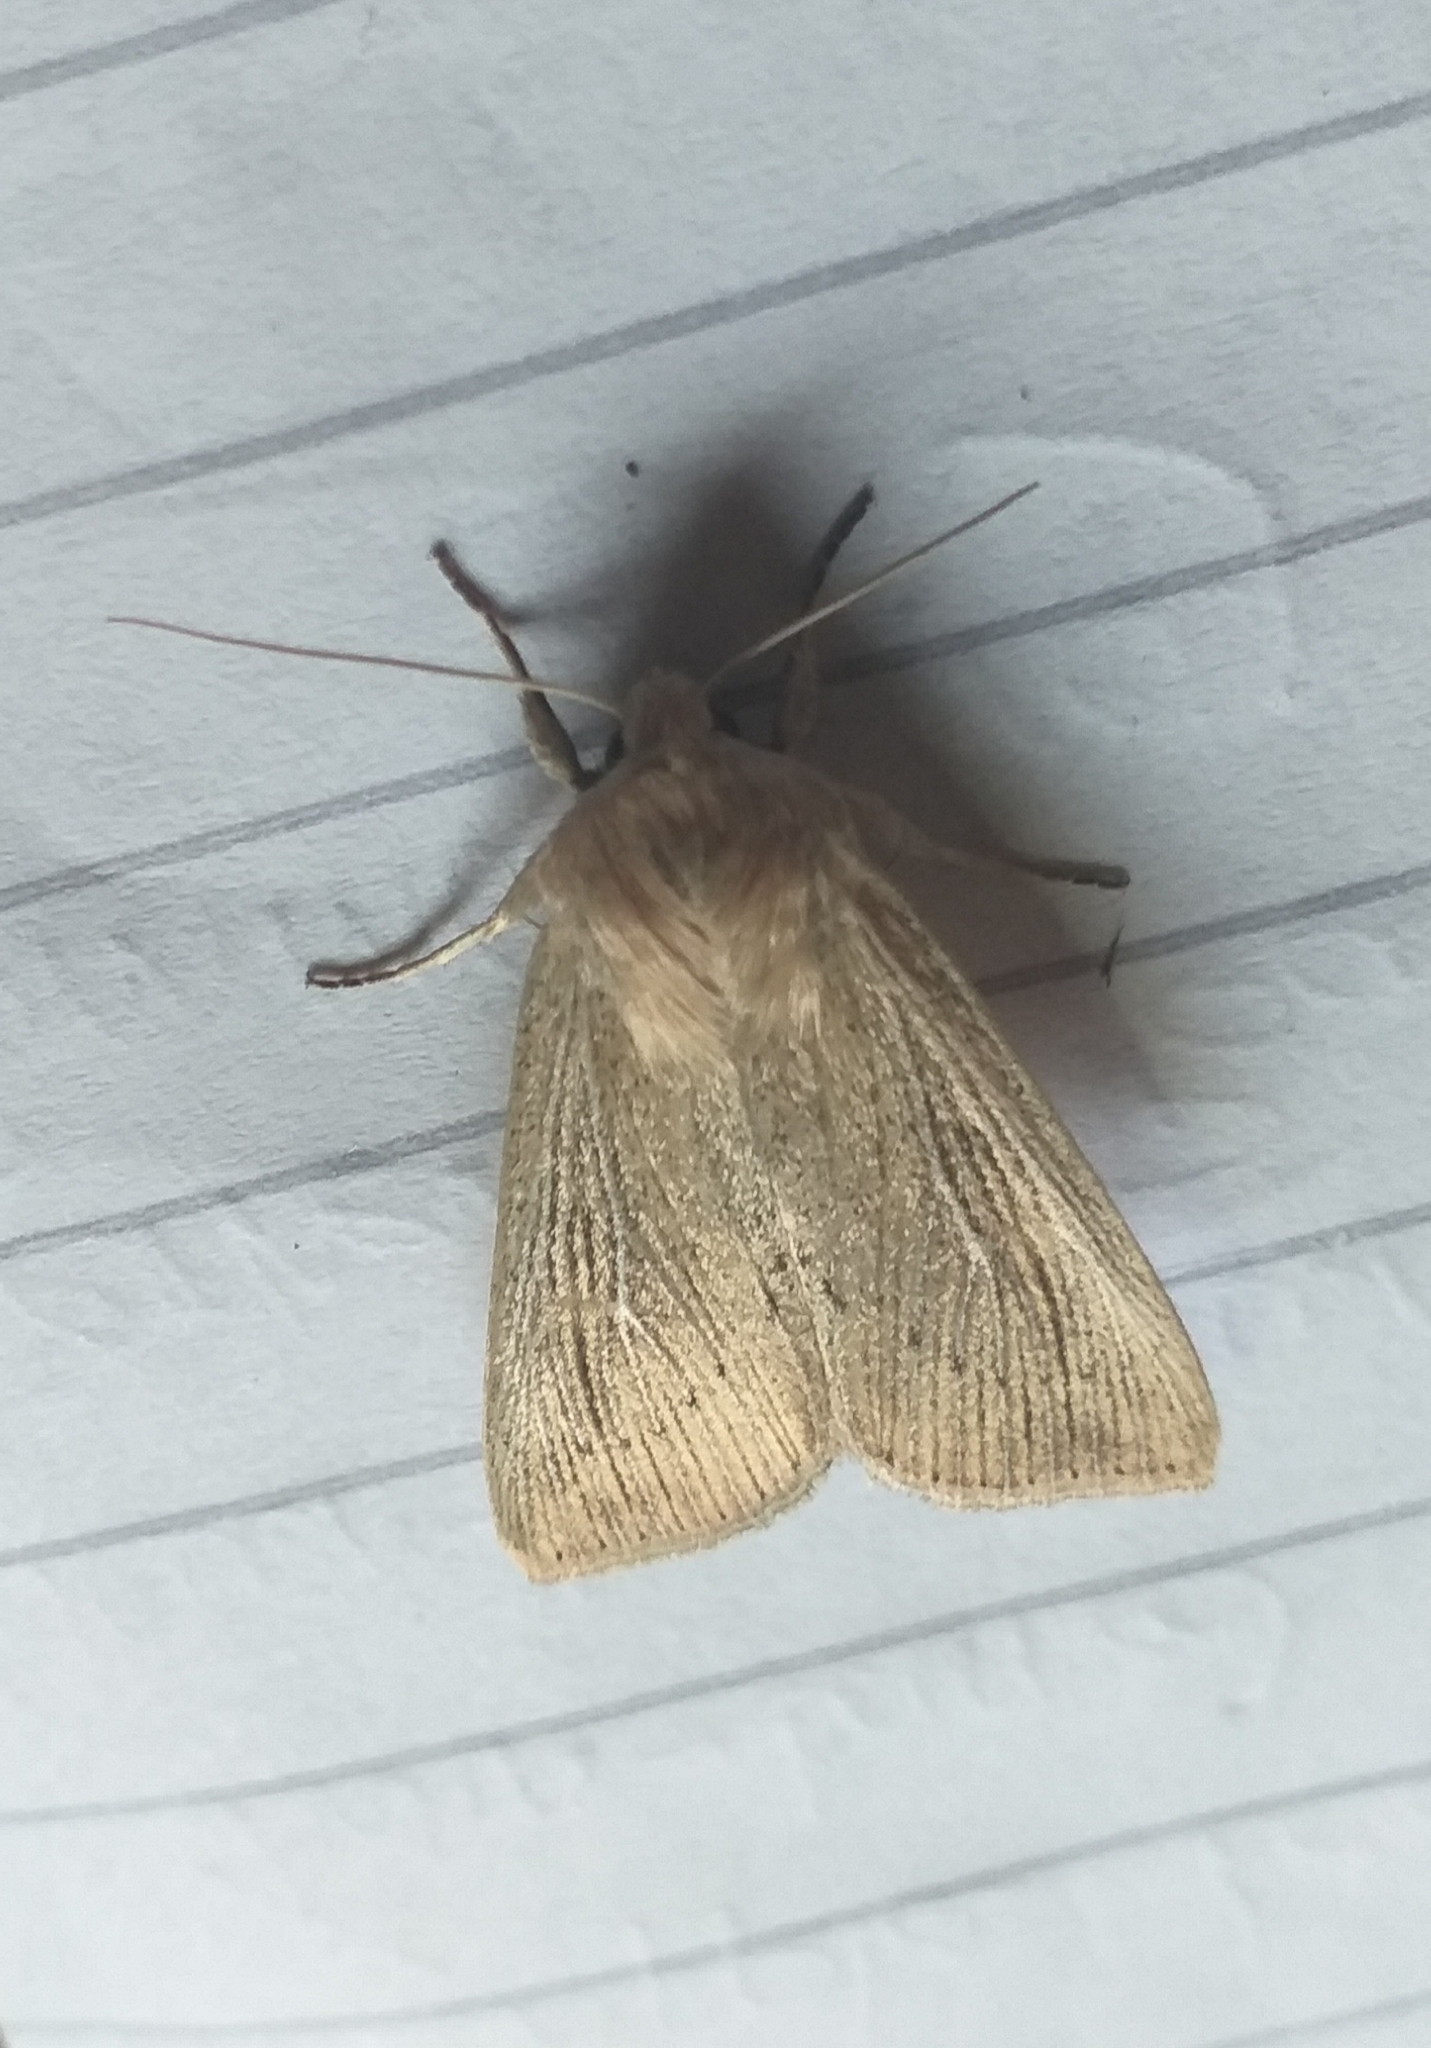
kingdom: Animalia
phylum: Arthropoda
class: Insecta
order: Lepidoptera
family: Noctuidae
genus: Leucania
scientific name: Leucania obsoleta
